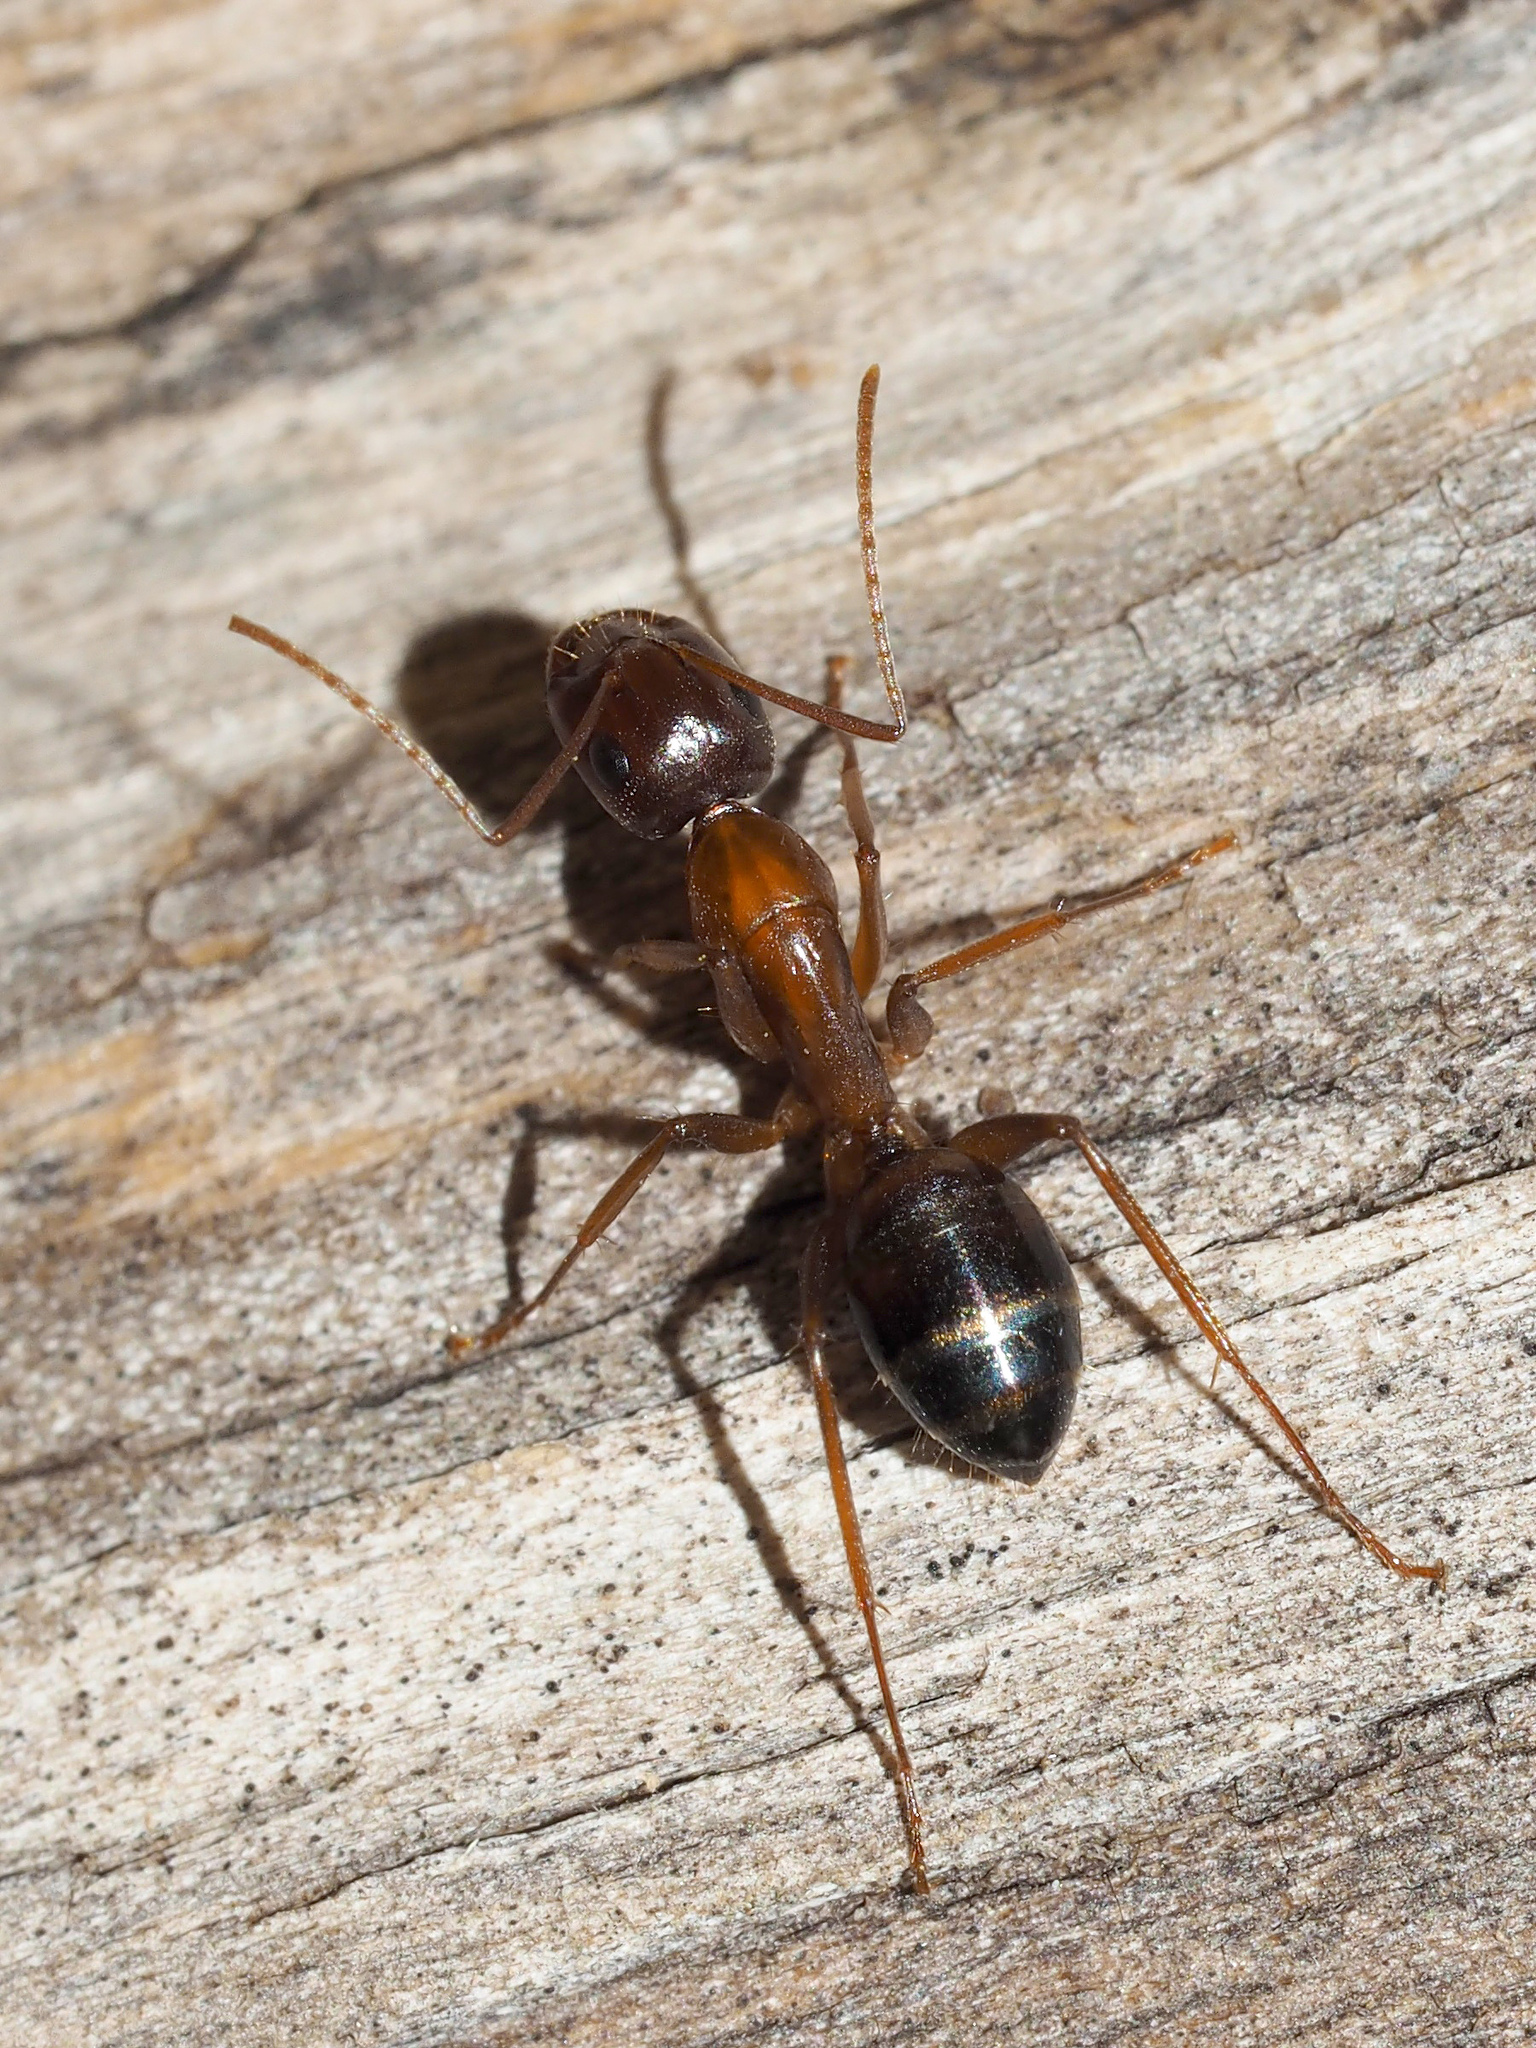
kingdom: Animalia
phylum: Arthropoda
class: Insecta
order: Hymenoptera
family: Formicidae
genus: Camponotus
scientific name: Camponotus nylanderi
